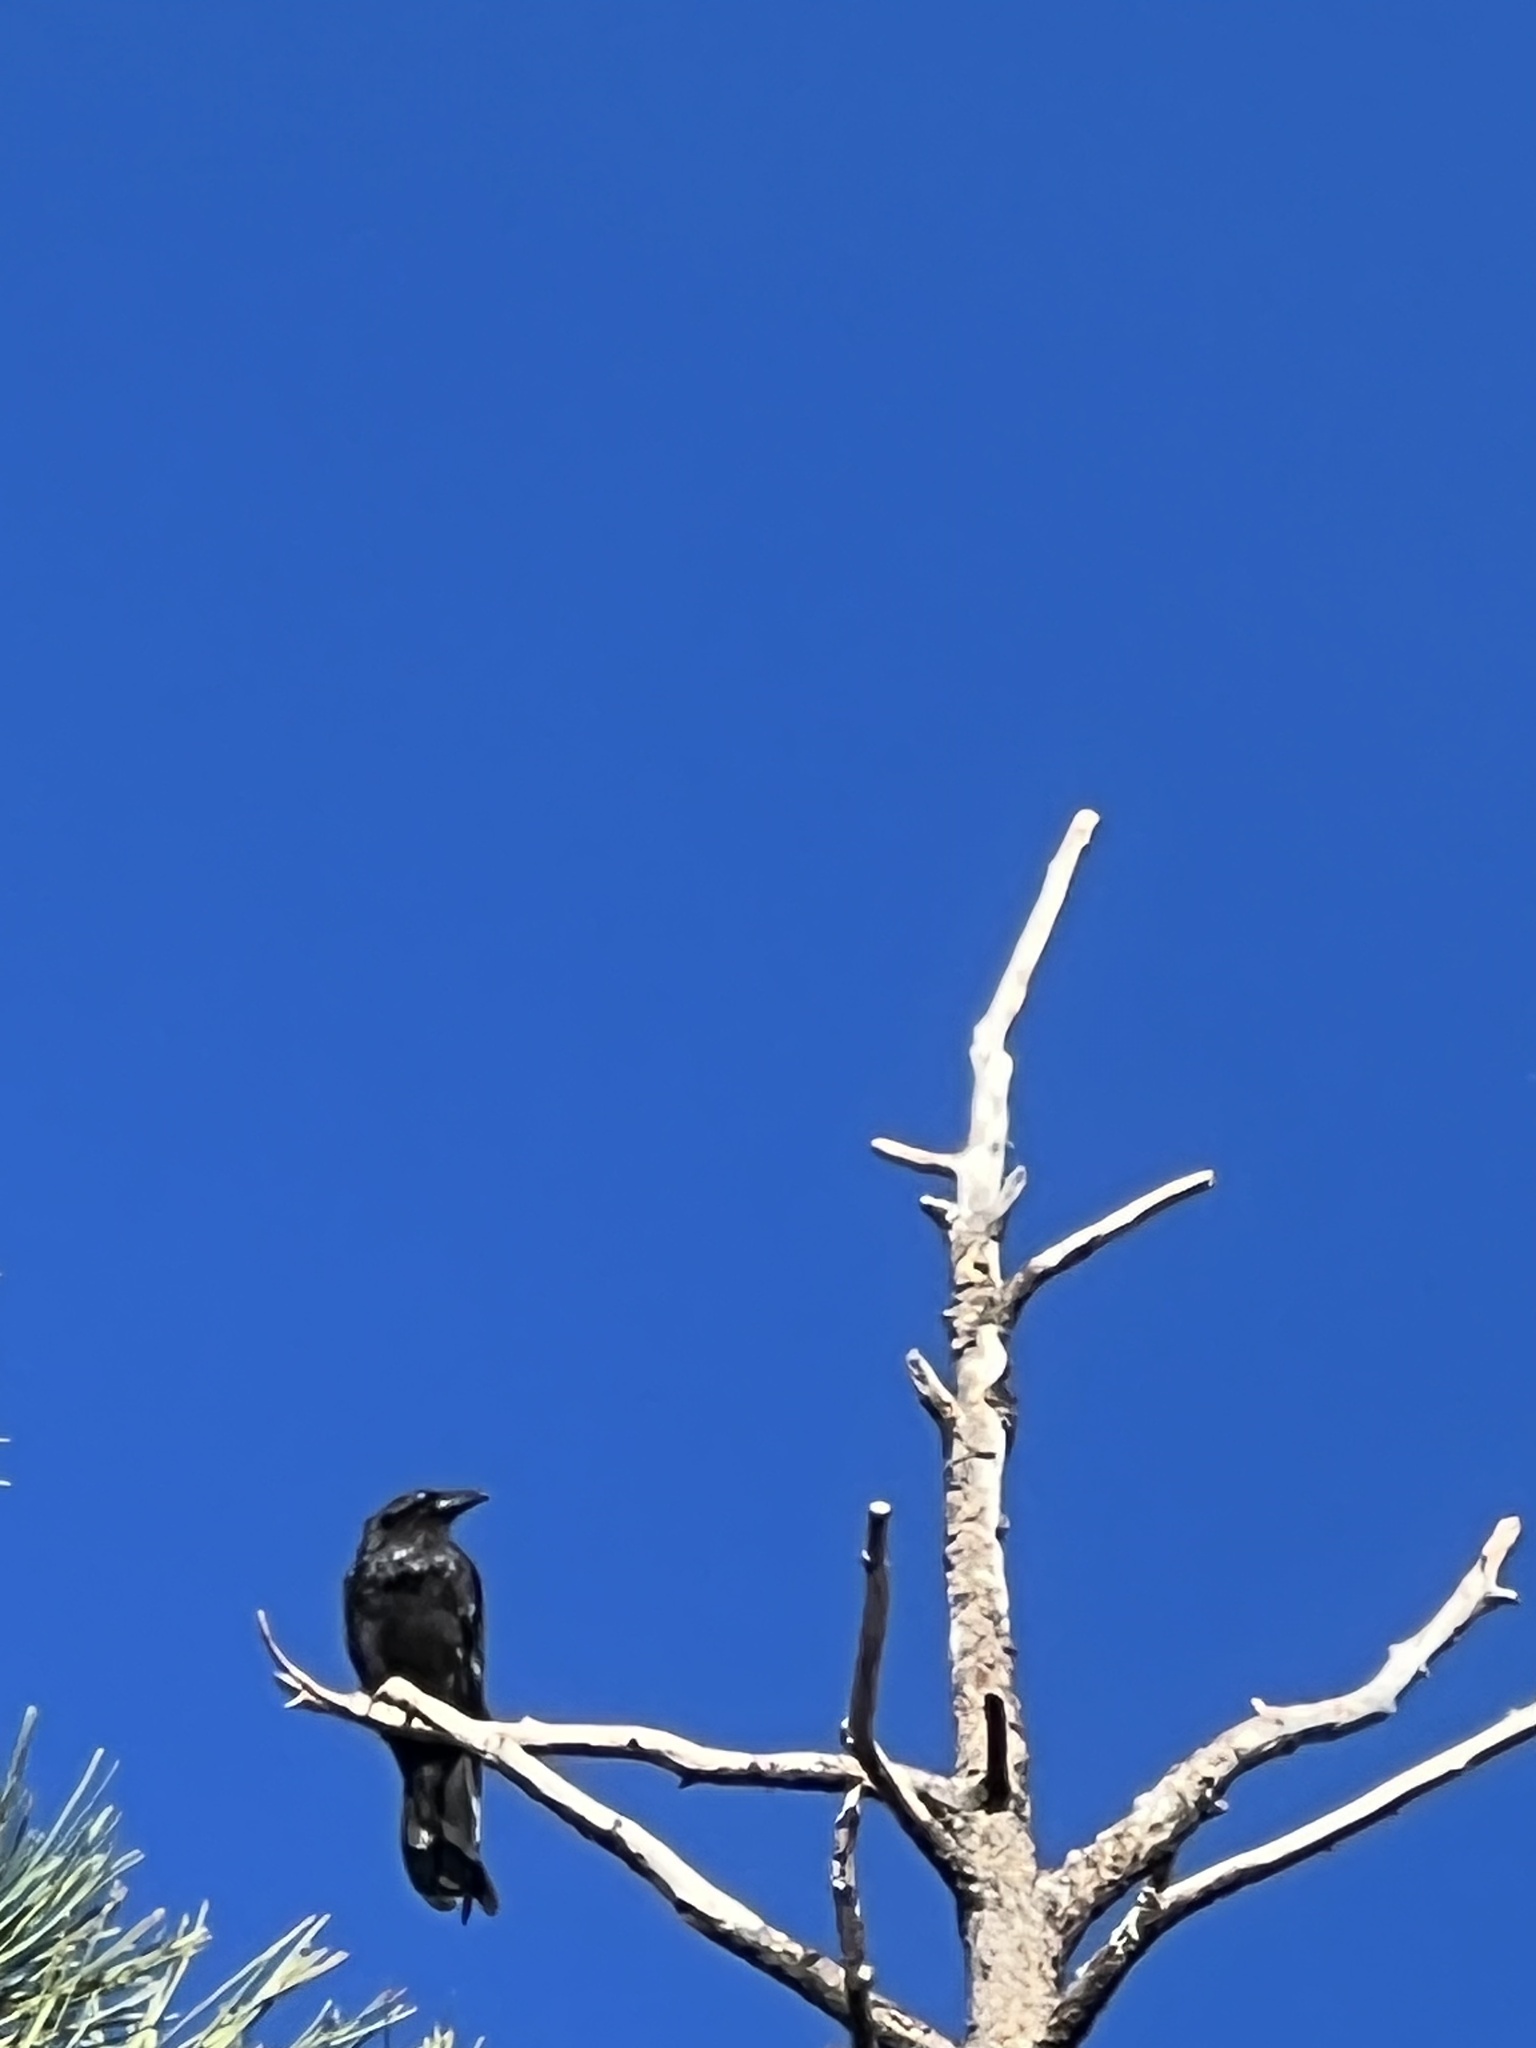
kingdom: Animalia
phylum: Chordata
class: Aves
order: Passeriformes
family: Corvidae
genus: Corvus
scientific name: Corvus corax
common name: Common raven
